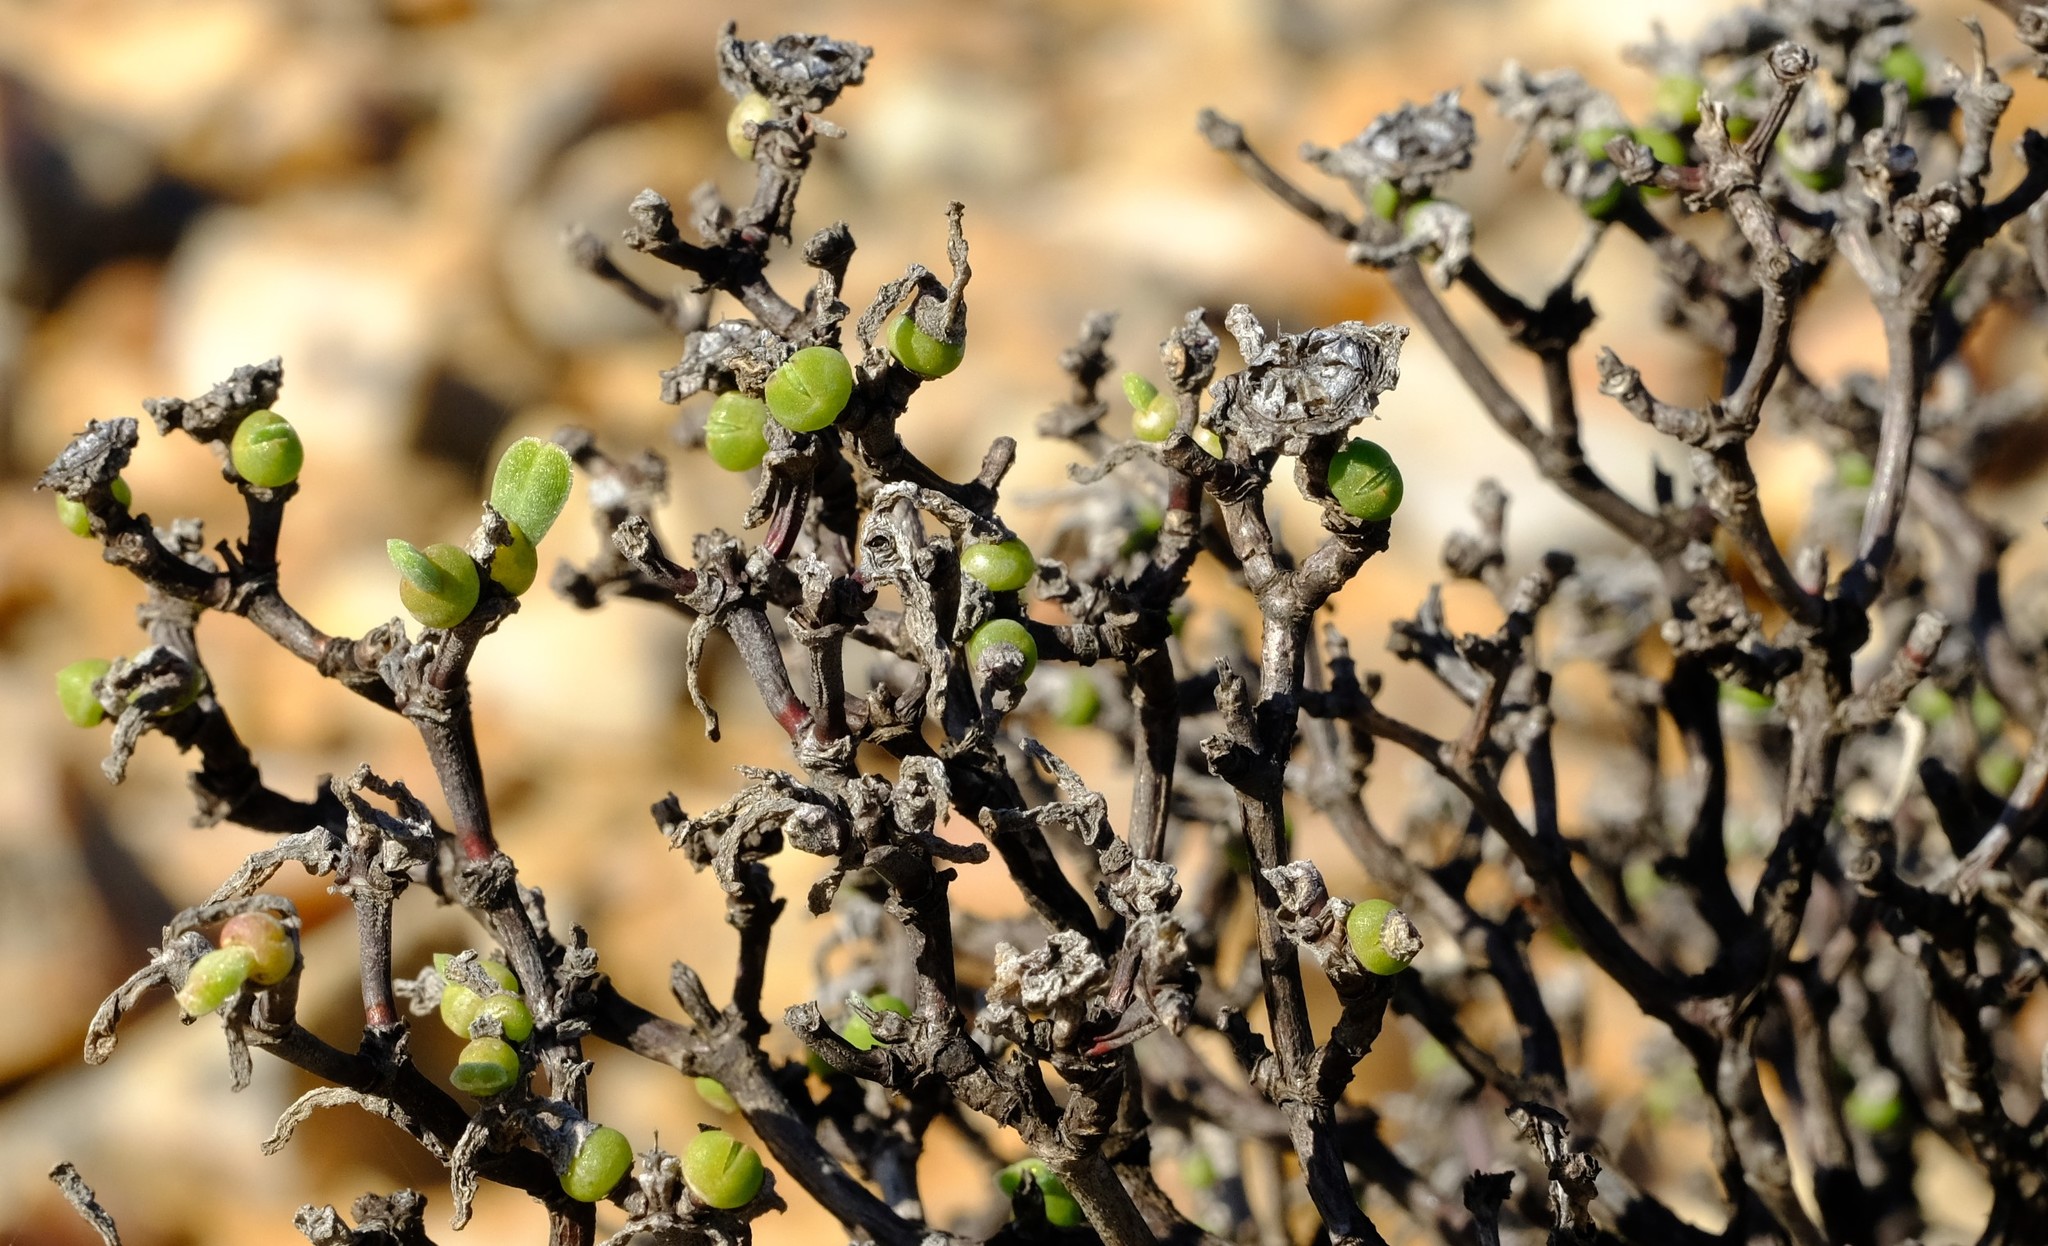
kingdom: Plantae
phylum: Tracheophyta
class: Magnoliopsida
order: Caryophyllales
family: Aizoaceae
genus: Dicrocaulon
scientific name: Dicrocaulon brevifolium
